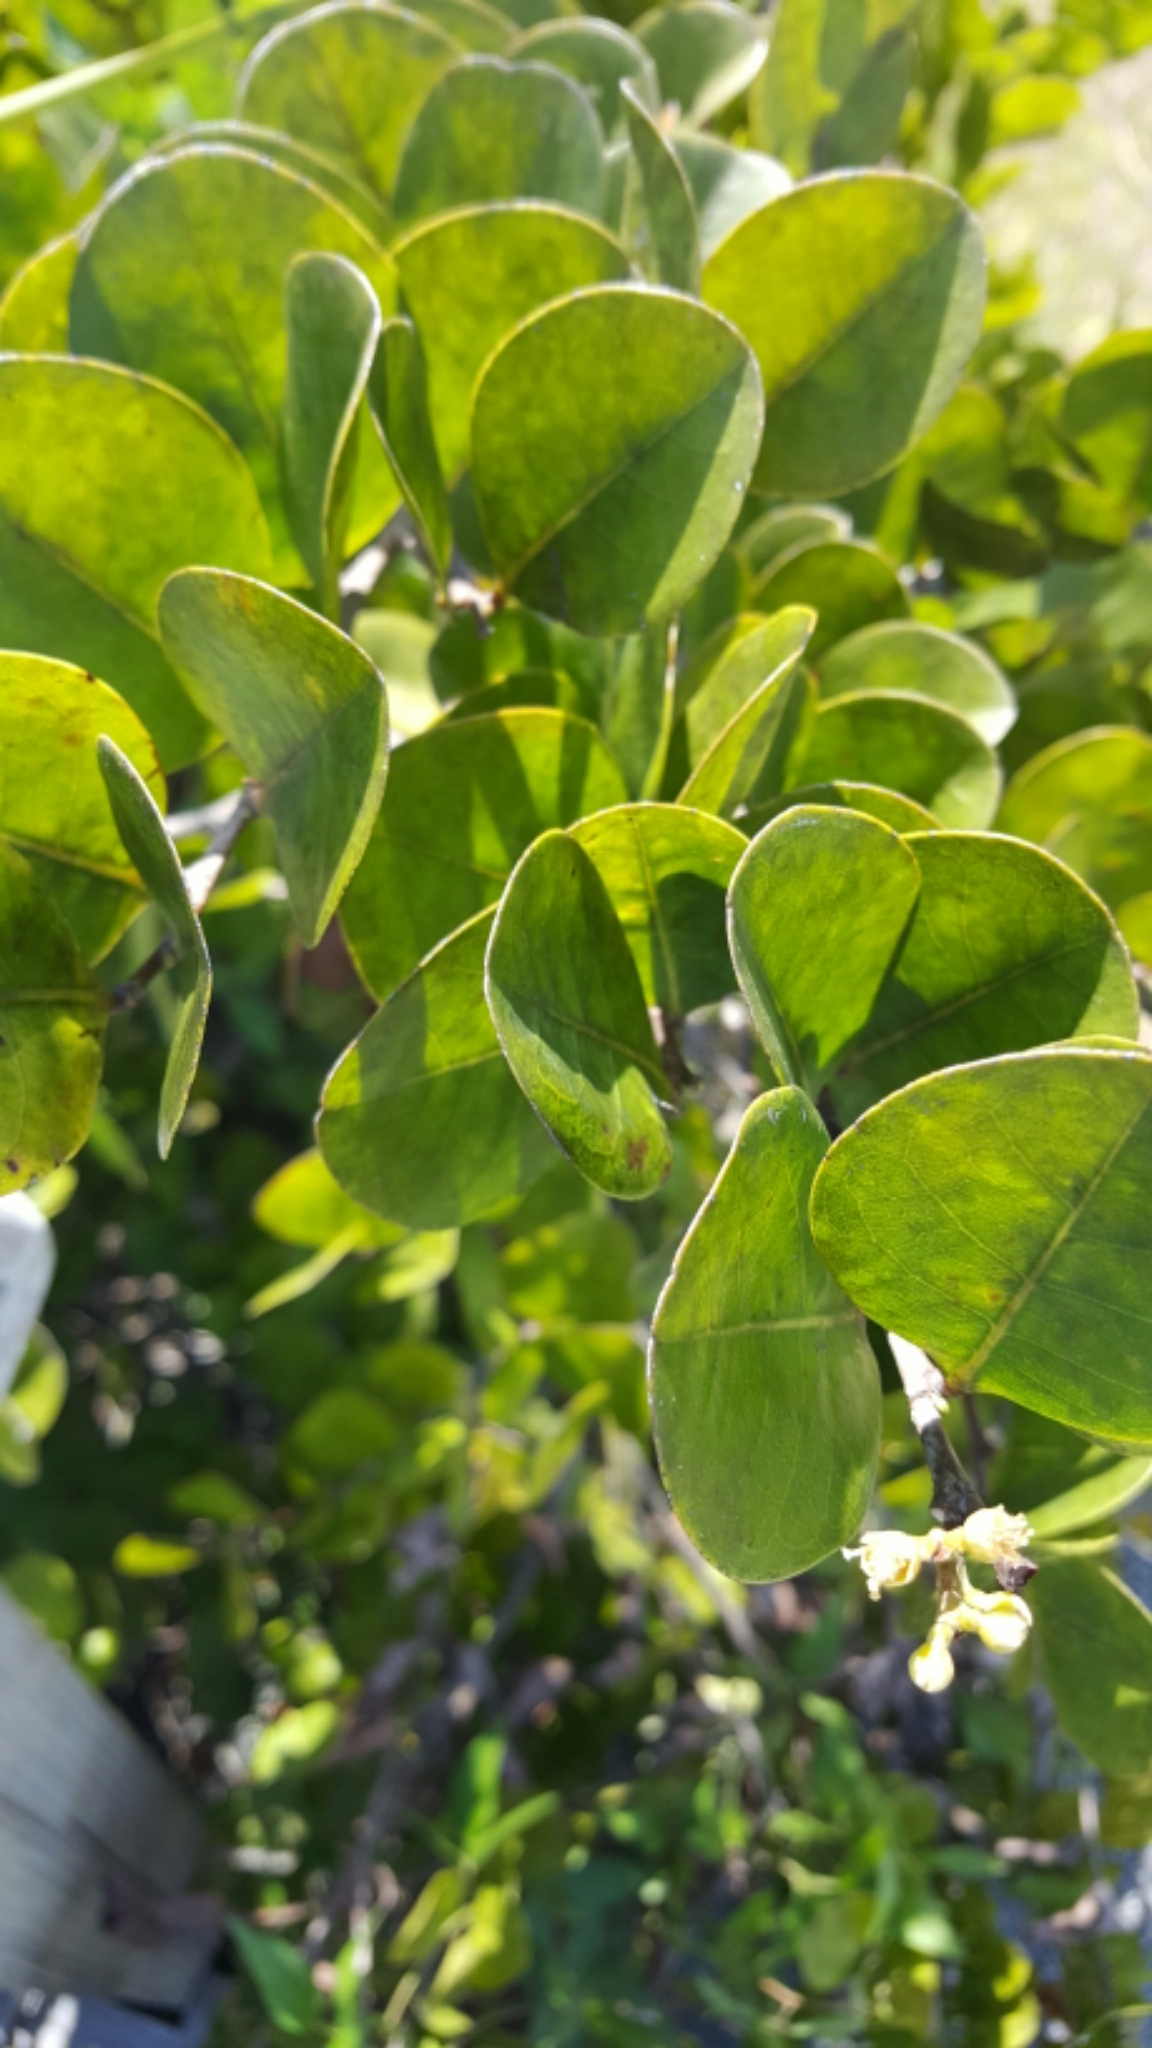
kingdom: Plantae
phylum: Tracheophyta
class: Magnoliopsida
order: Malpighiales
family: Chrysobalanaceae
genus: Chrysobalanus
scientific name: Chrysobalanus icaco
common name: Coco plum
